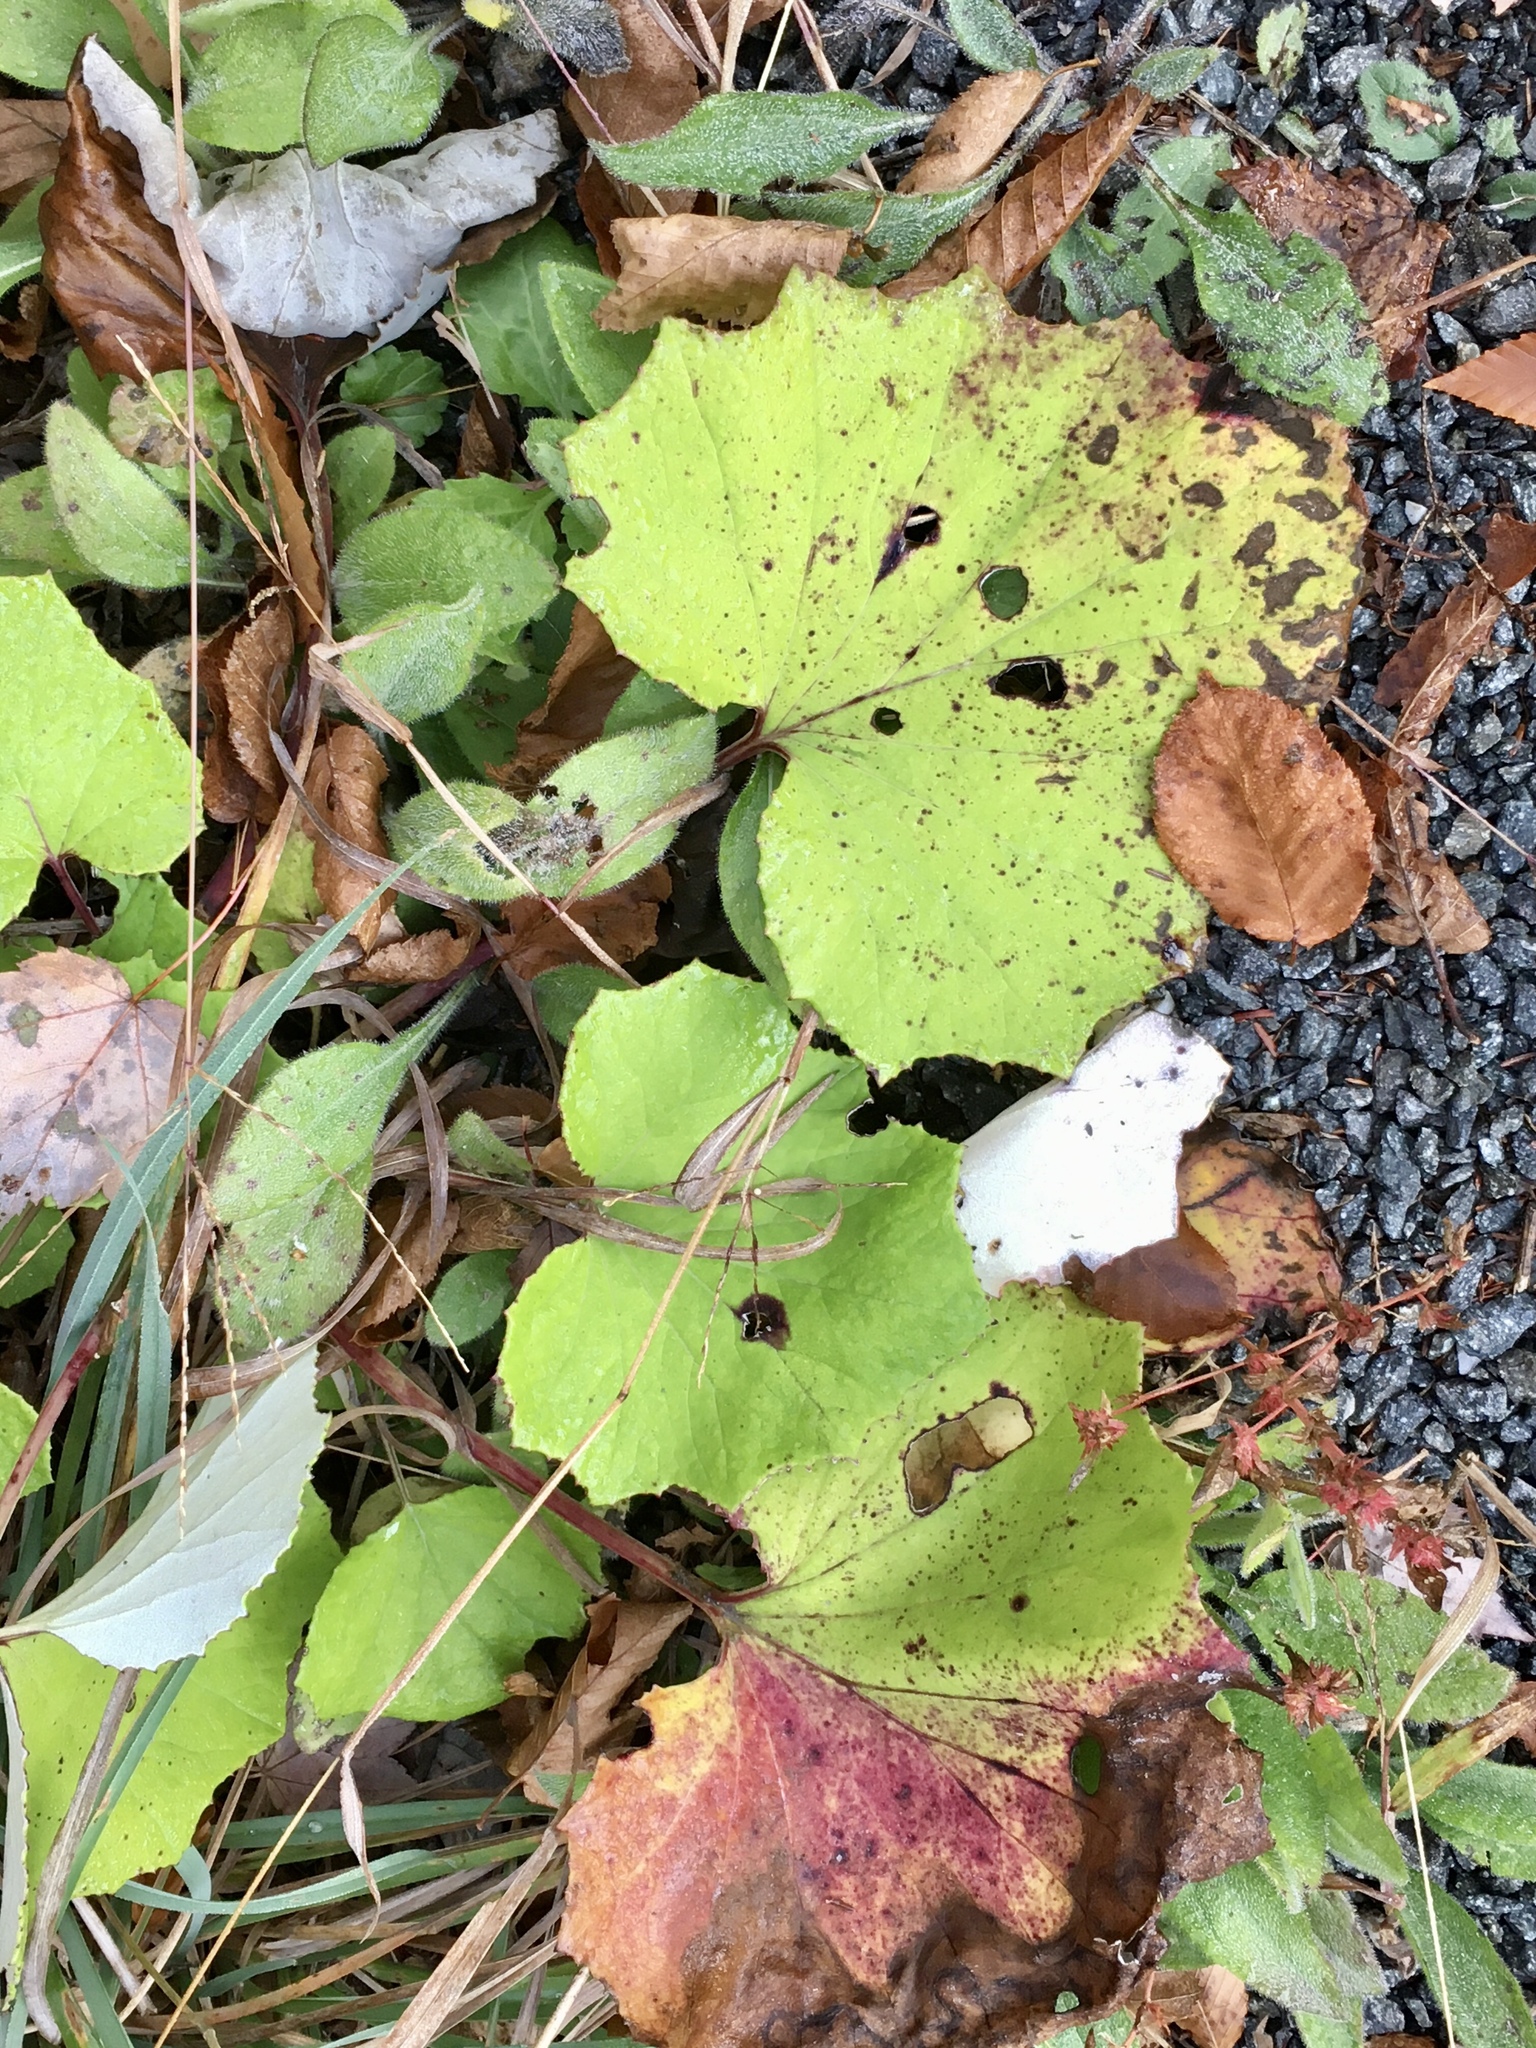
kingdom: Plantae
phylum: Tracheophyta
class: Magnoliopsida
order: Asterales
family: Asteraceae
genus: Tussilago
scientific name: Tussilago farfara
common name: Coltsfoot
